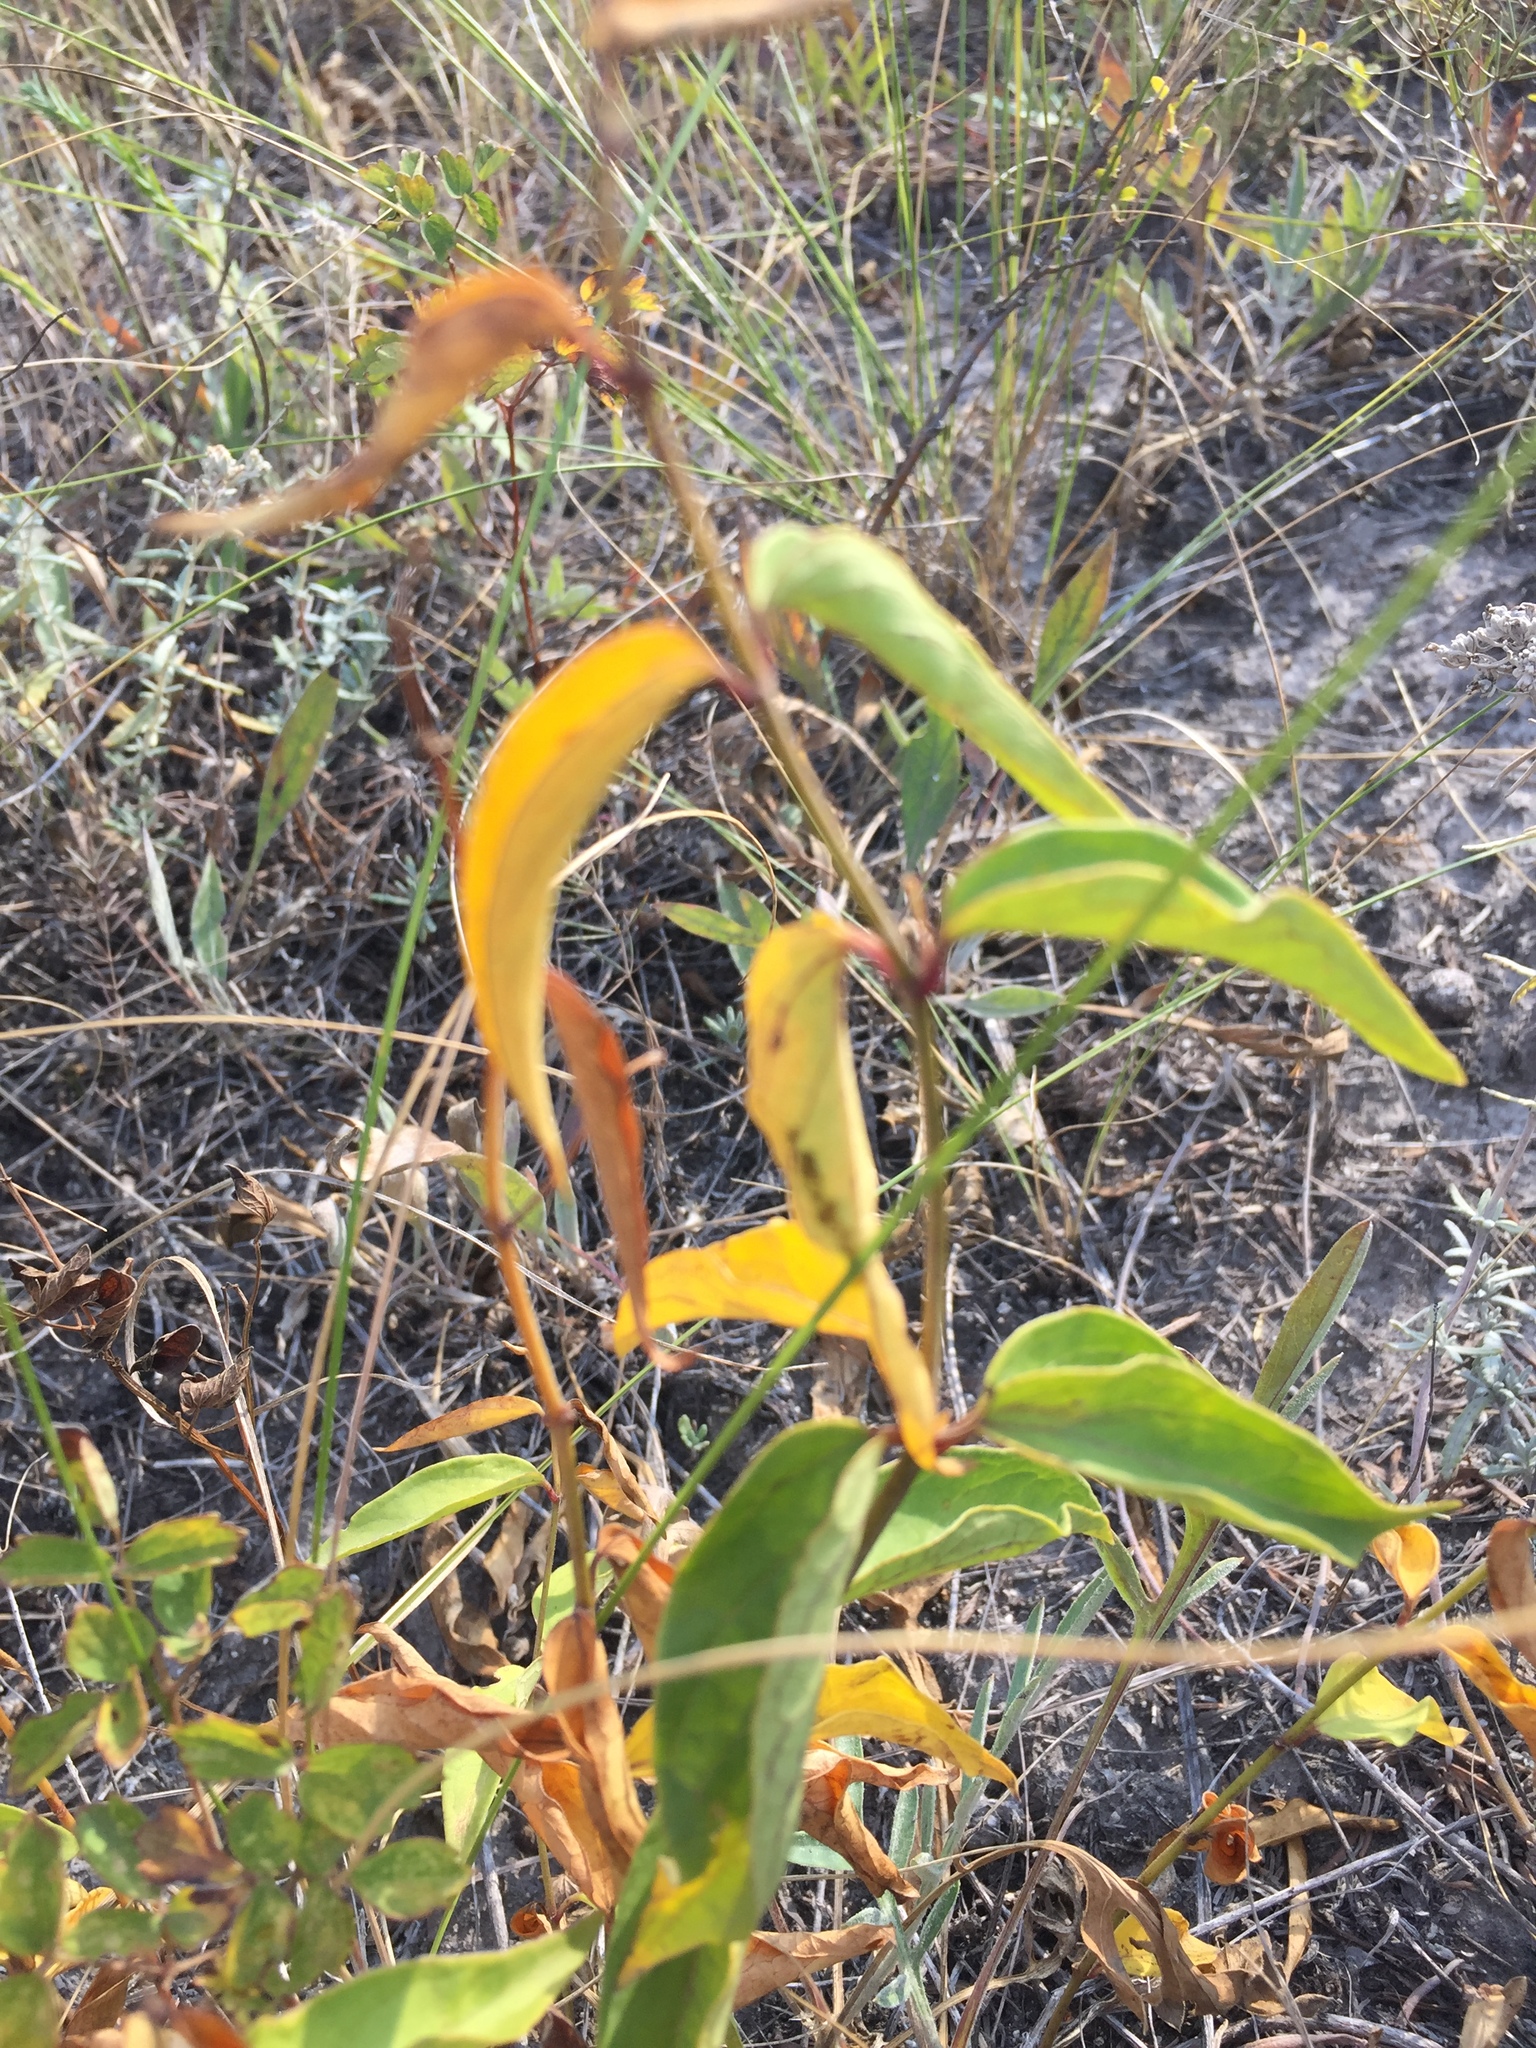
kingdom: Plantae
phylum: Tracheophyta
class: Magnoliopsida
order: Gentianales
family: Apocynaceae
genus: Vincetoxicum
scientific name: Vincetoxicum hirundinaria
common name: White swallowwort
